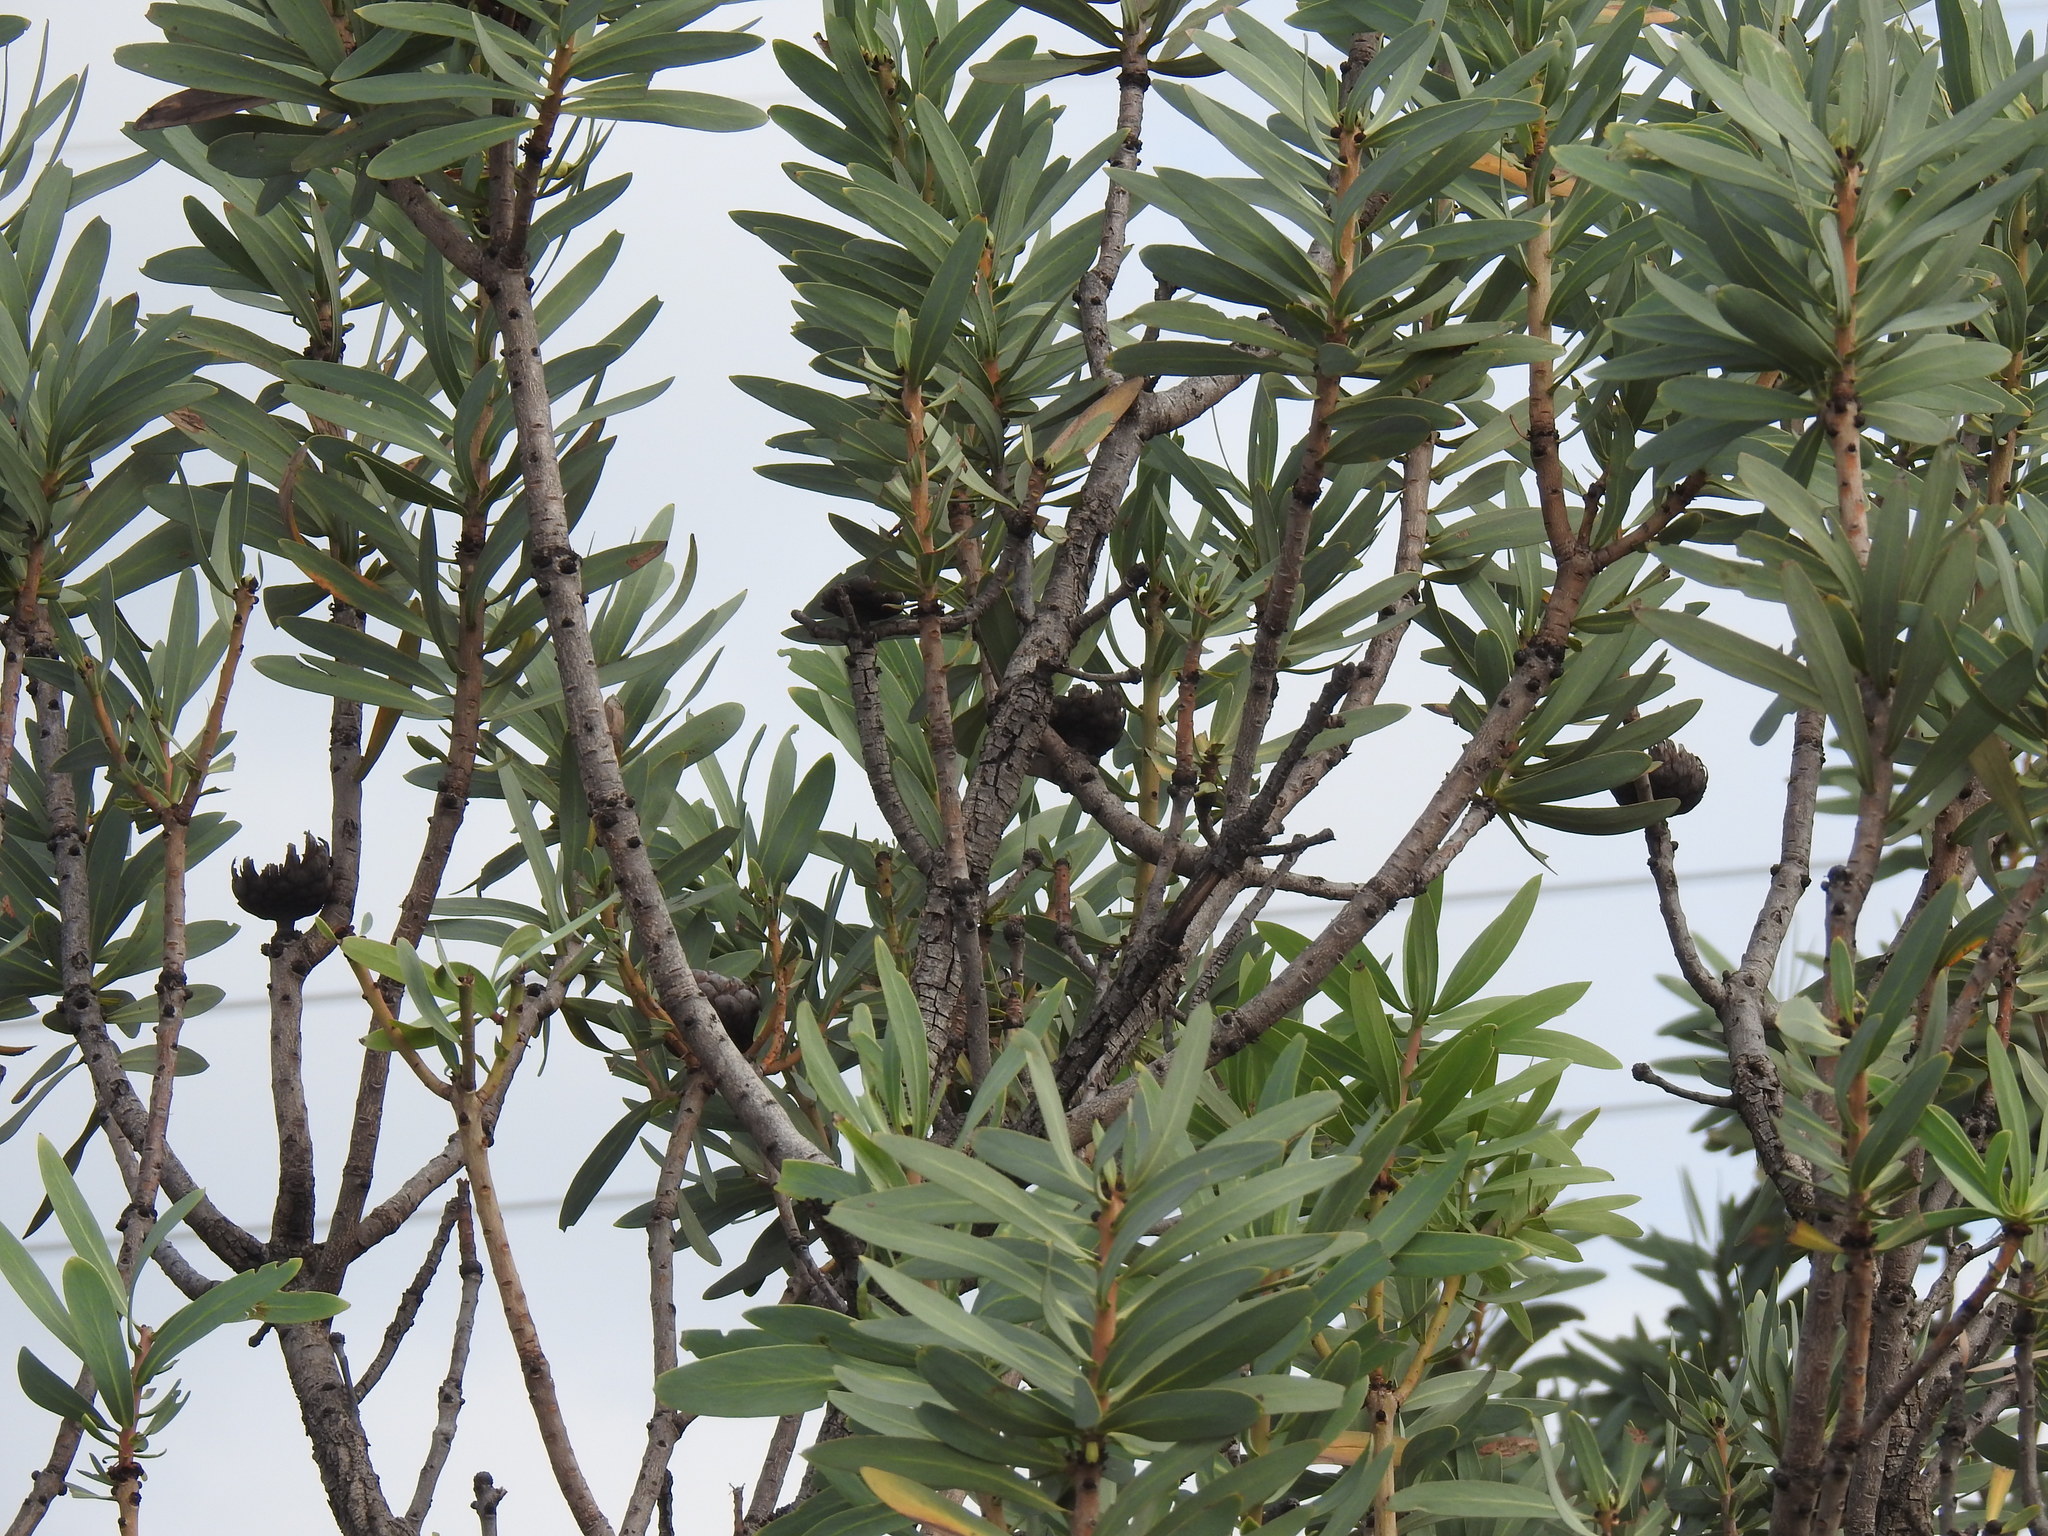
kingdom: Plantae
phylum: Tracheophyta
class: Magnoliopsida
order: Proteales
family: Proteaceae
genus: Protea
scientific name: Protea caffra
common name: Common sugarbush
